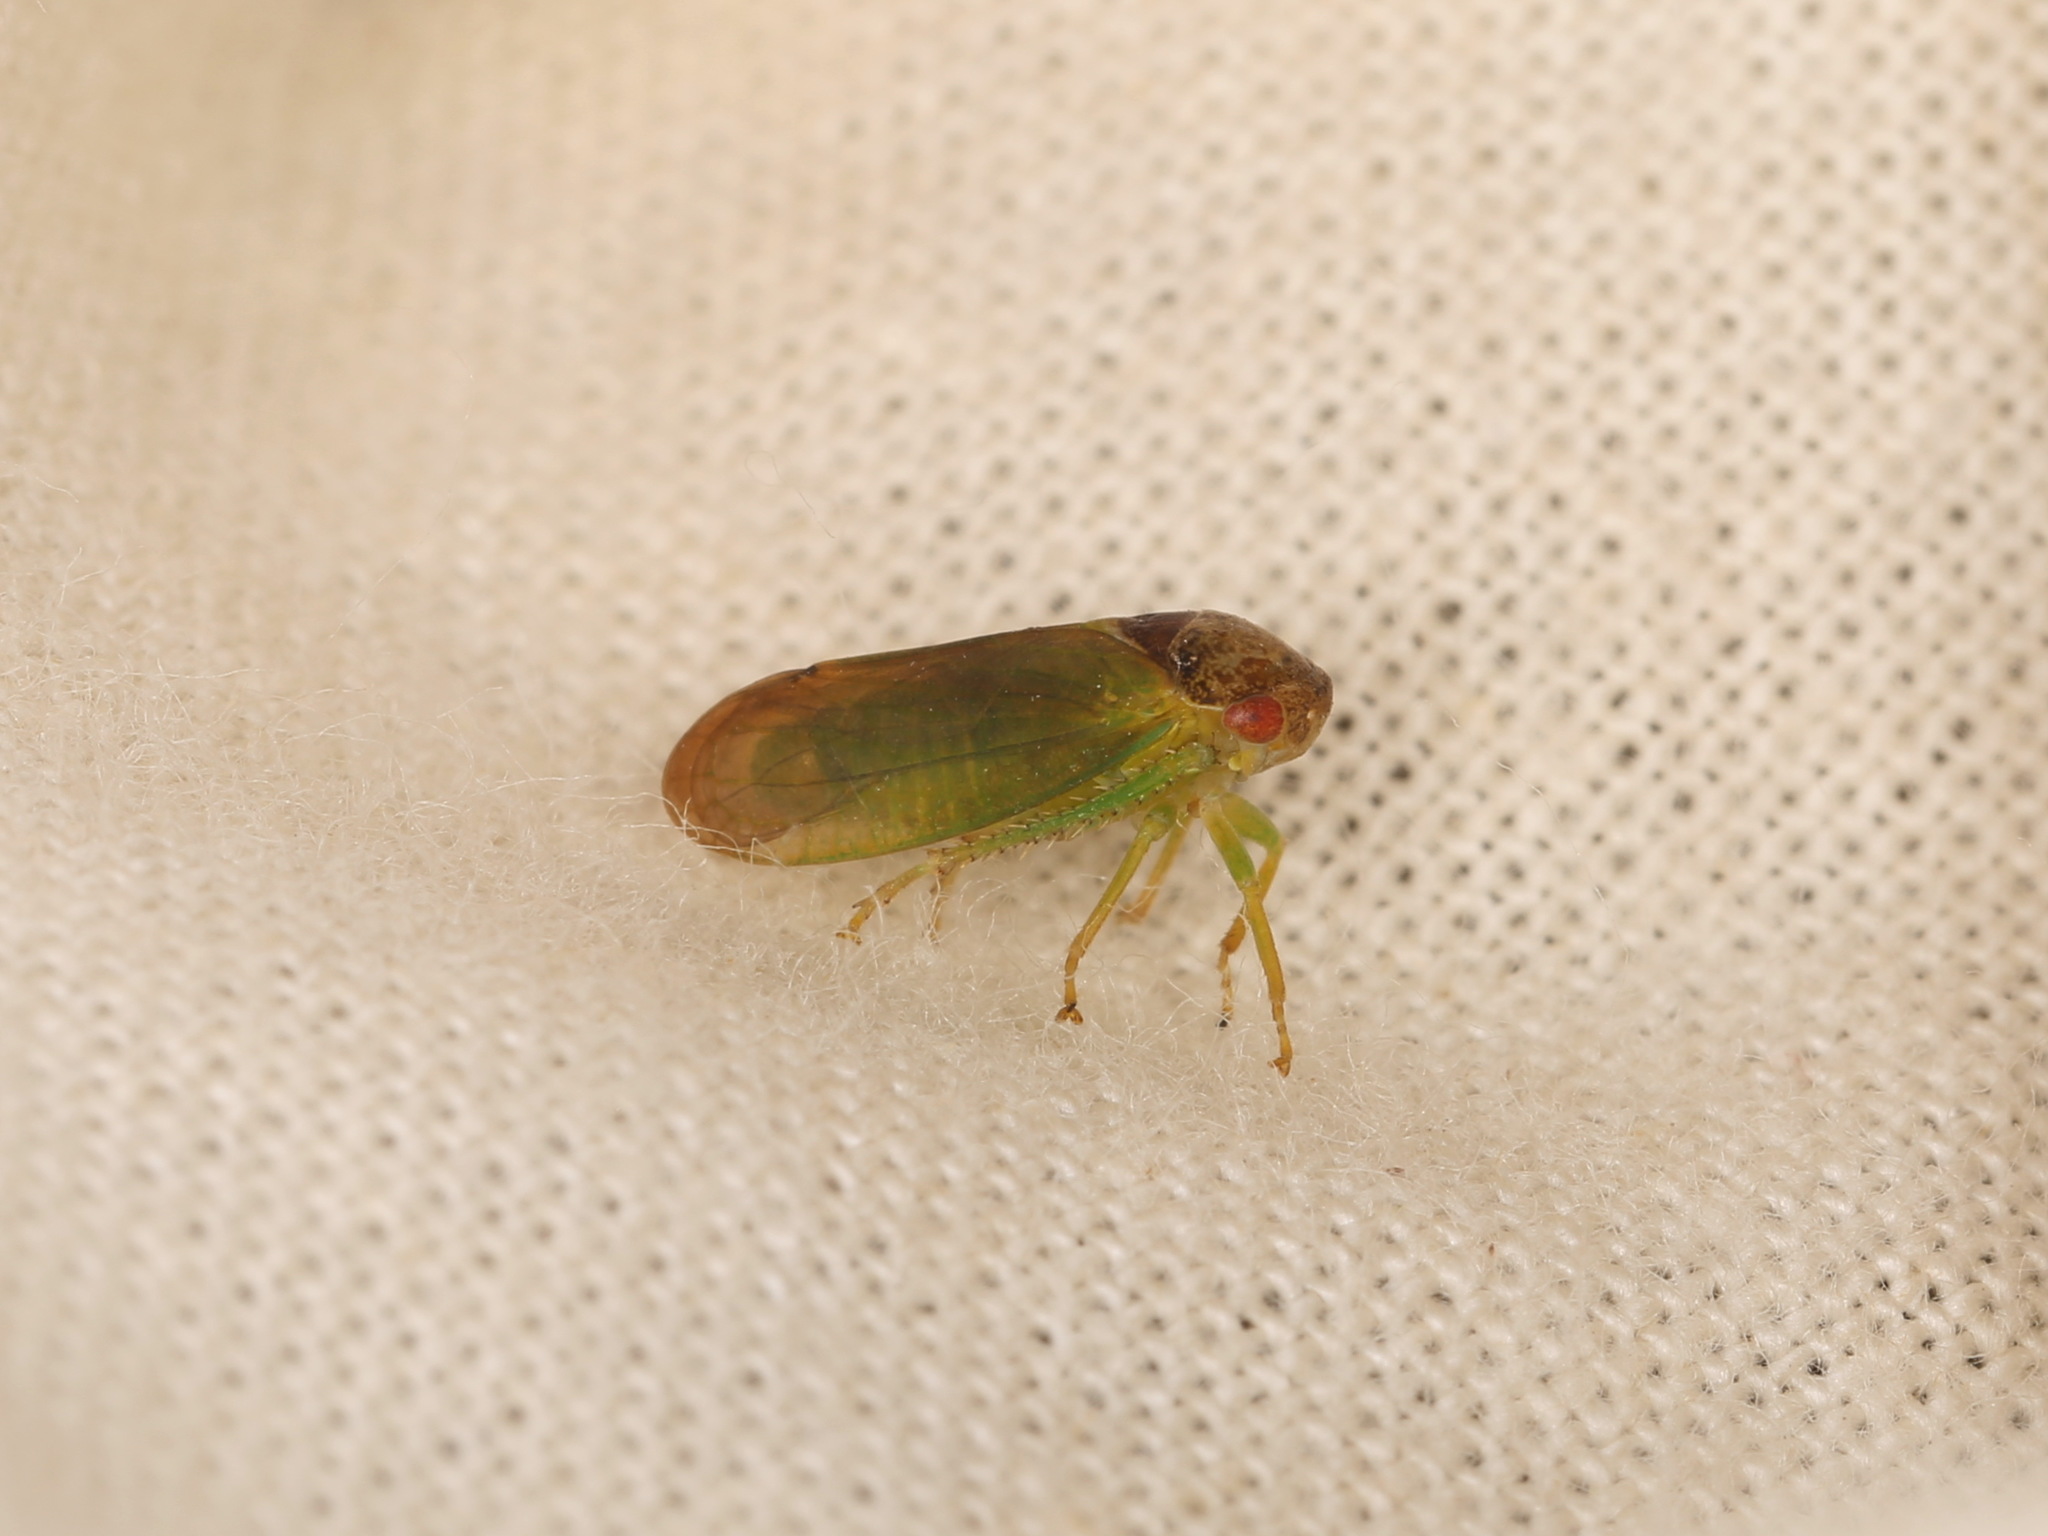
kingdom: Animalia
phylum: Arthropoda
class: Insecta
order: Hemiptera
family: Cicadellidae
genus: Iassus
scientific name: Iassus lanio
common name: Leafhopper
